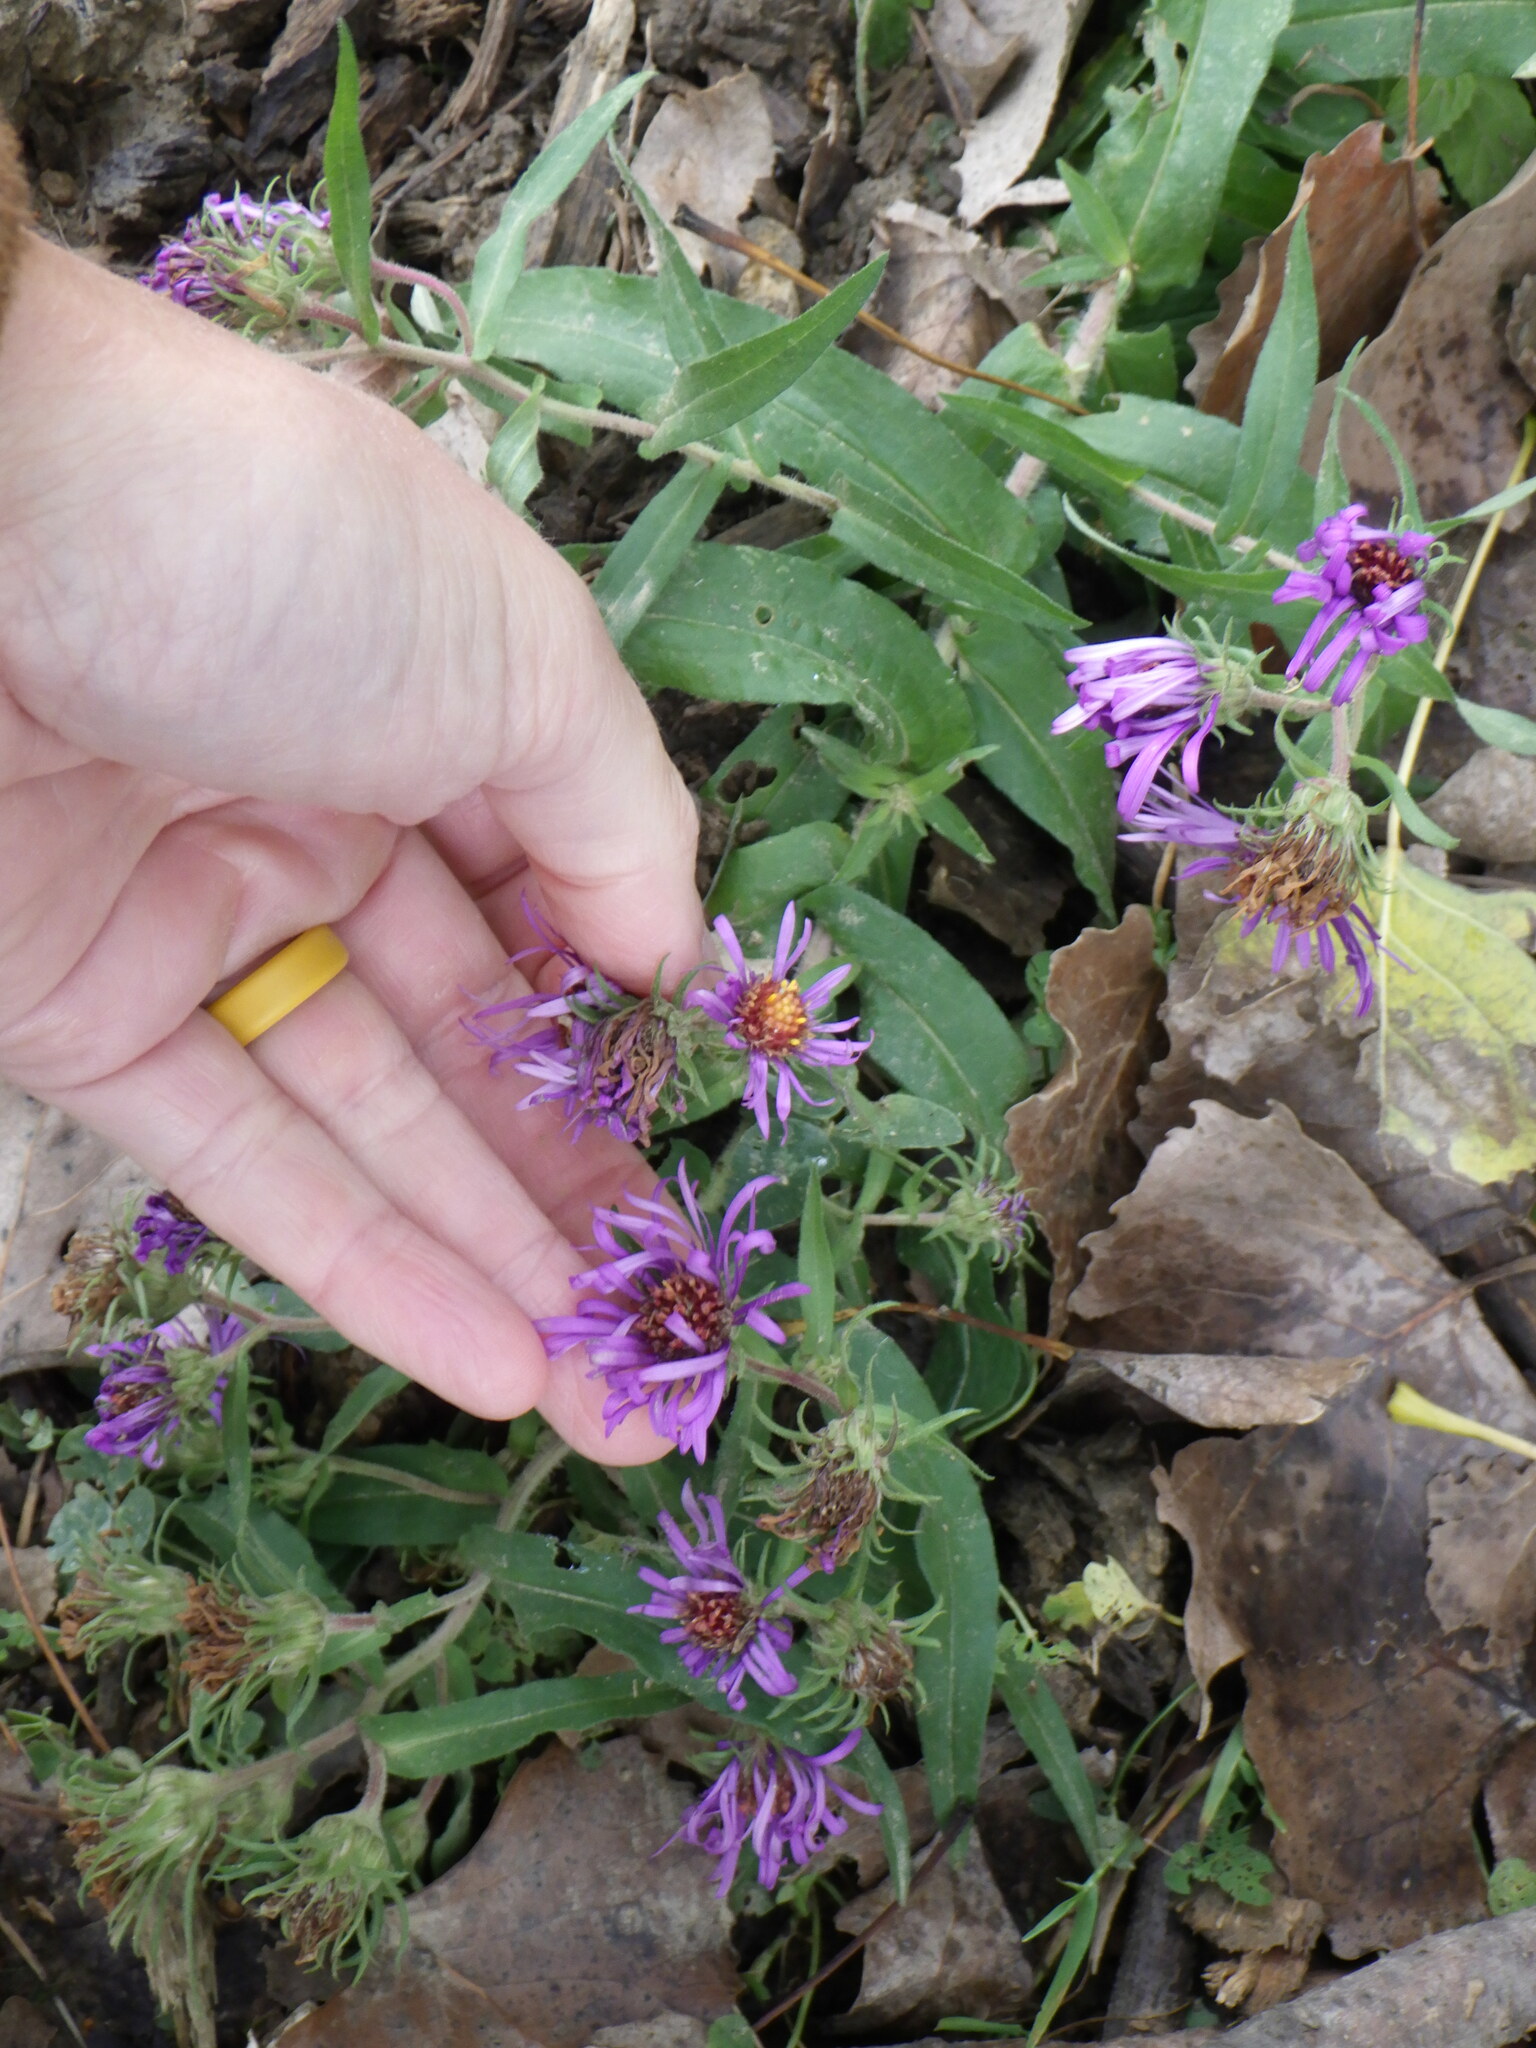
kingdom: Plantae
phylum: Tracheophyta
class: Magnoliopsida
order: Asterales
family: Asteraceae
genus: Symphyotrichum
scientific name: Symphyotrichum novae-angliae
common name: Michaelmas daisy
